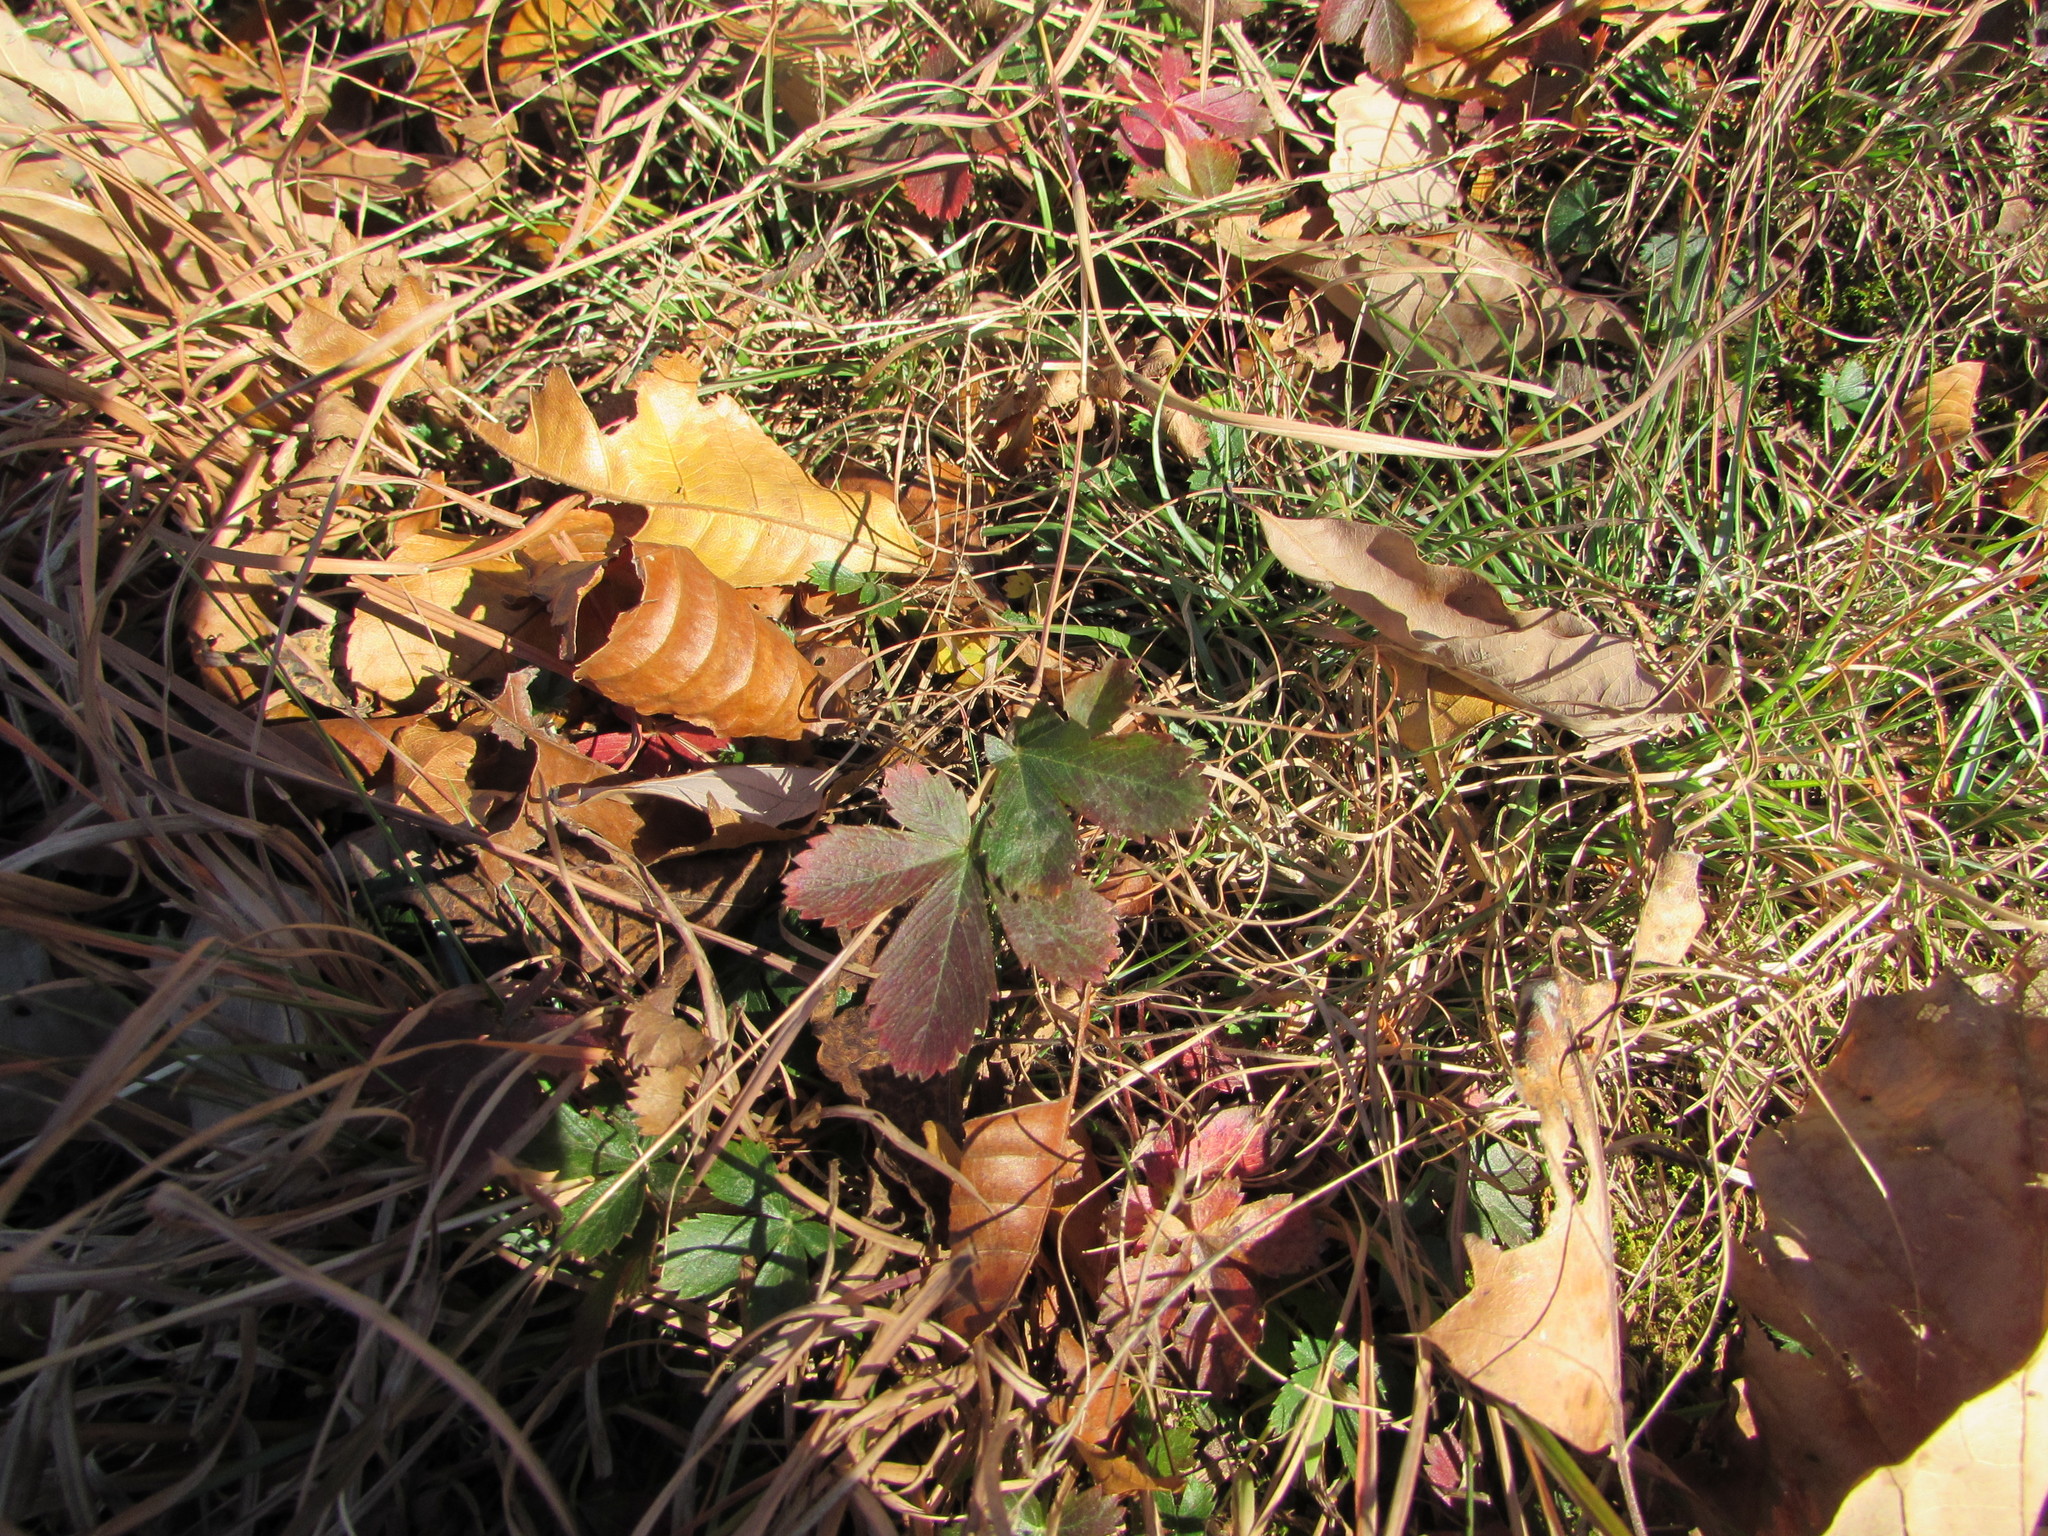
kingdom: Plantae
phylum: Tracheophyta
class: Magnoliopsida
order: Rosales
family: Rosaceae
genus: Potentilla
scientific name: Potentilla canadensis
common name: Canada cinquefoil
